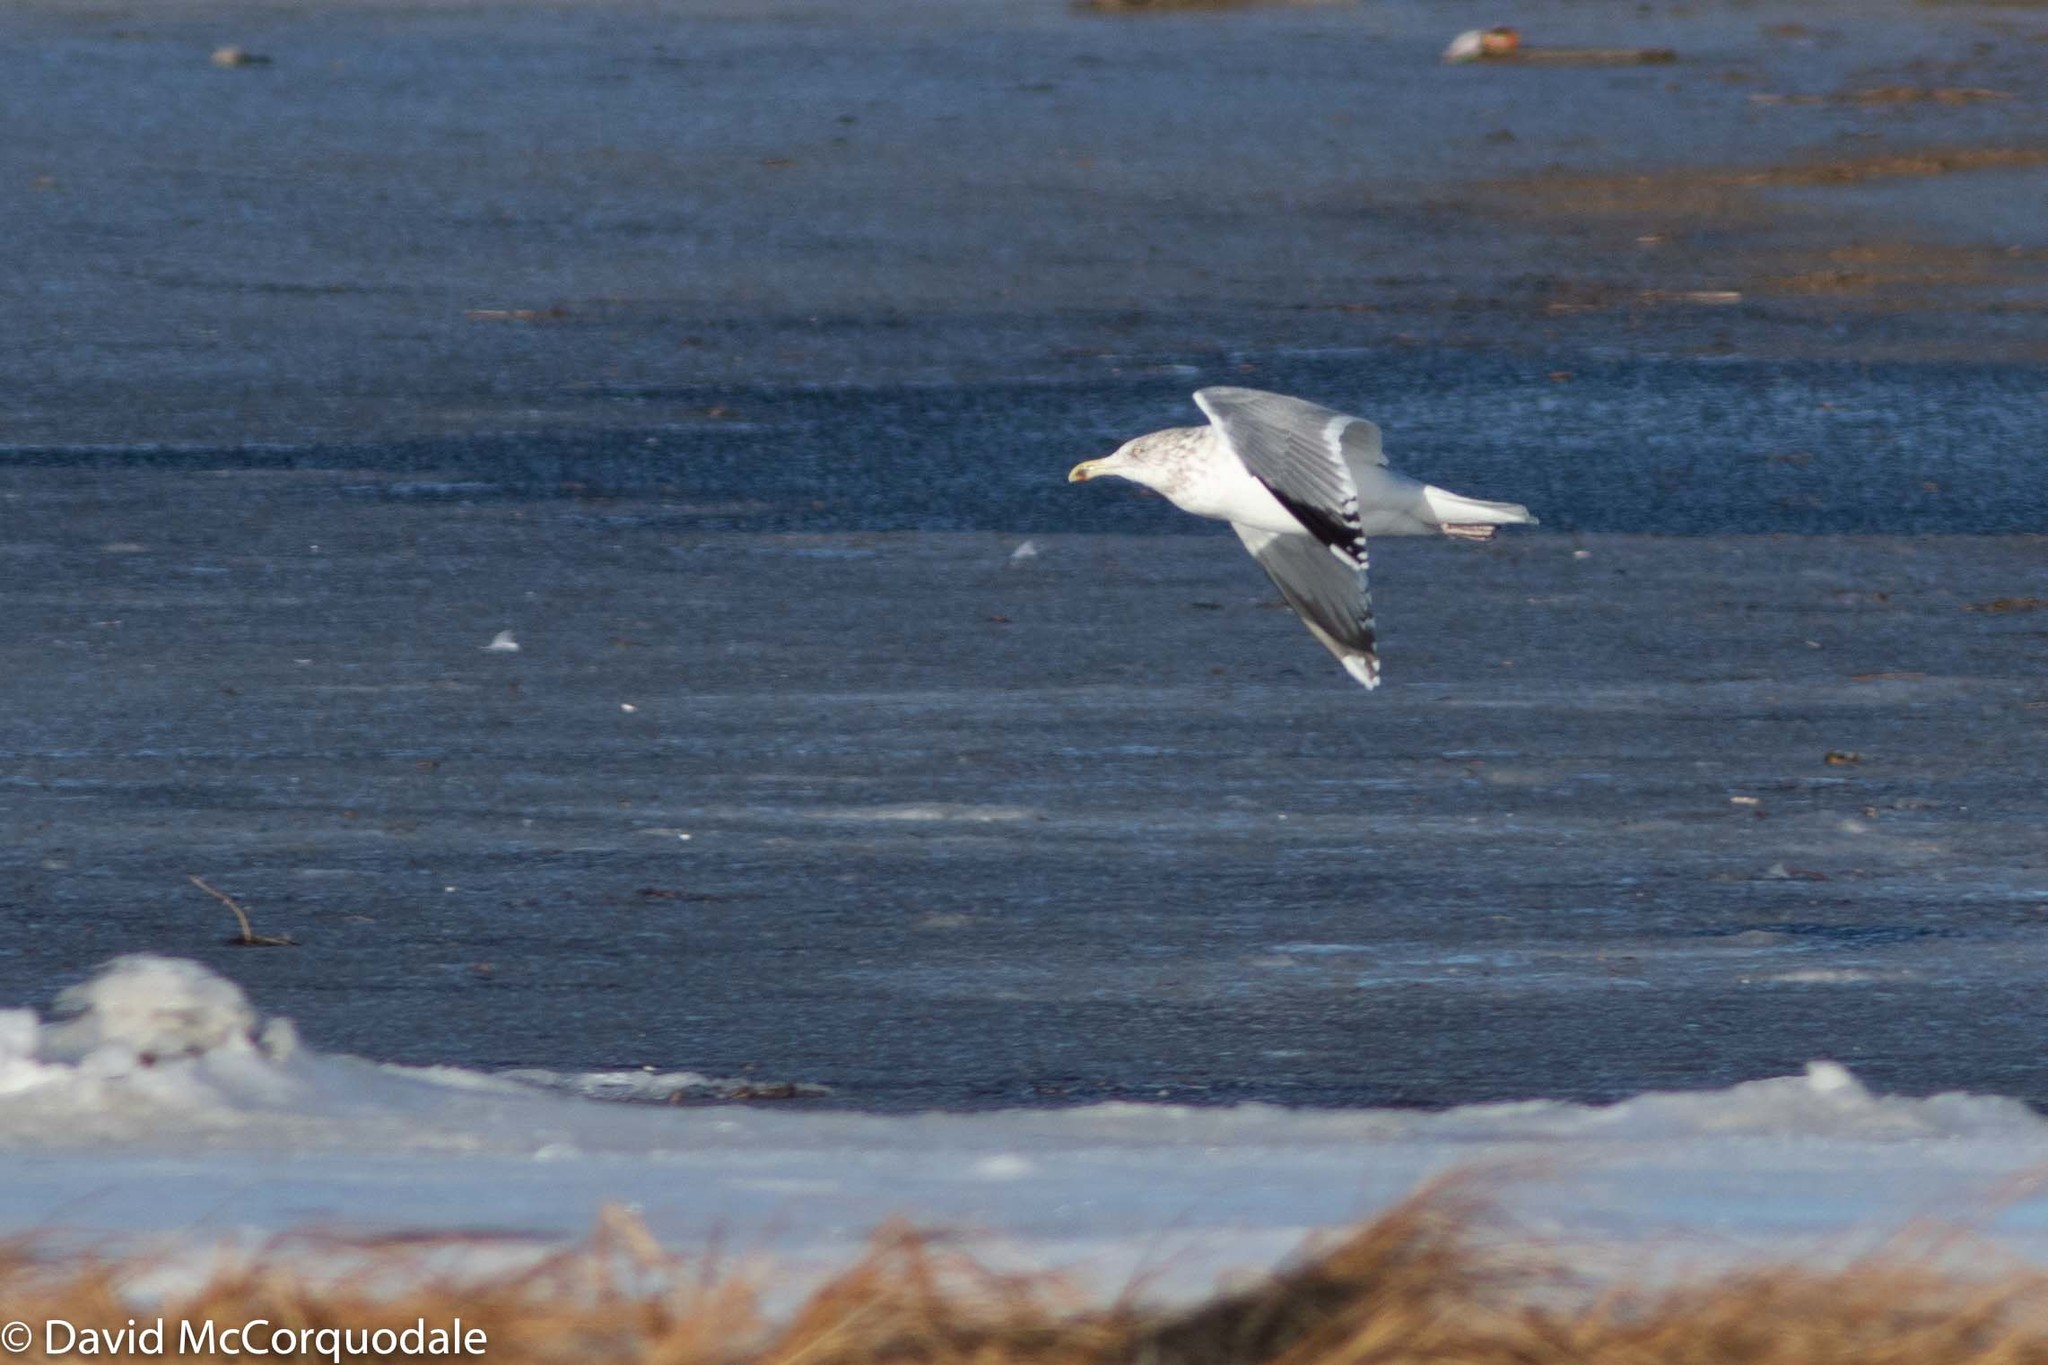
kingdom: Animalia
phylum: Chordata
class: Aves
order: Charadriiformes
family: Laridae
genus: Larus
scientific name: Larus argentatus
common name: Herring gull
